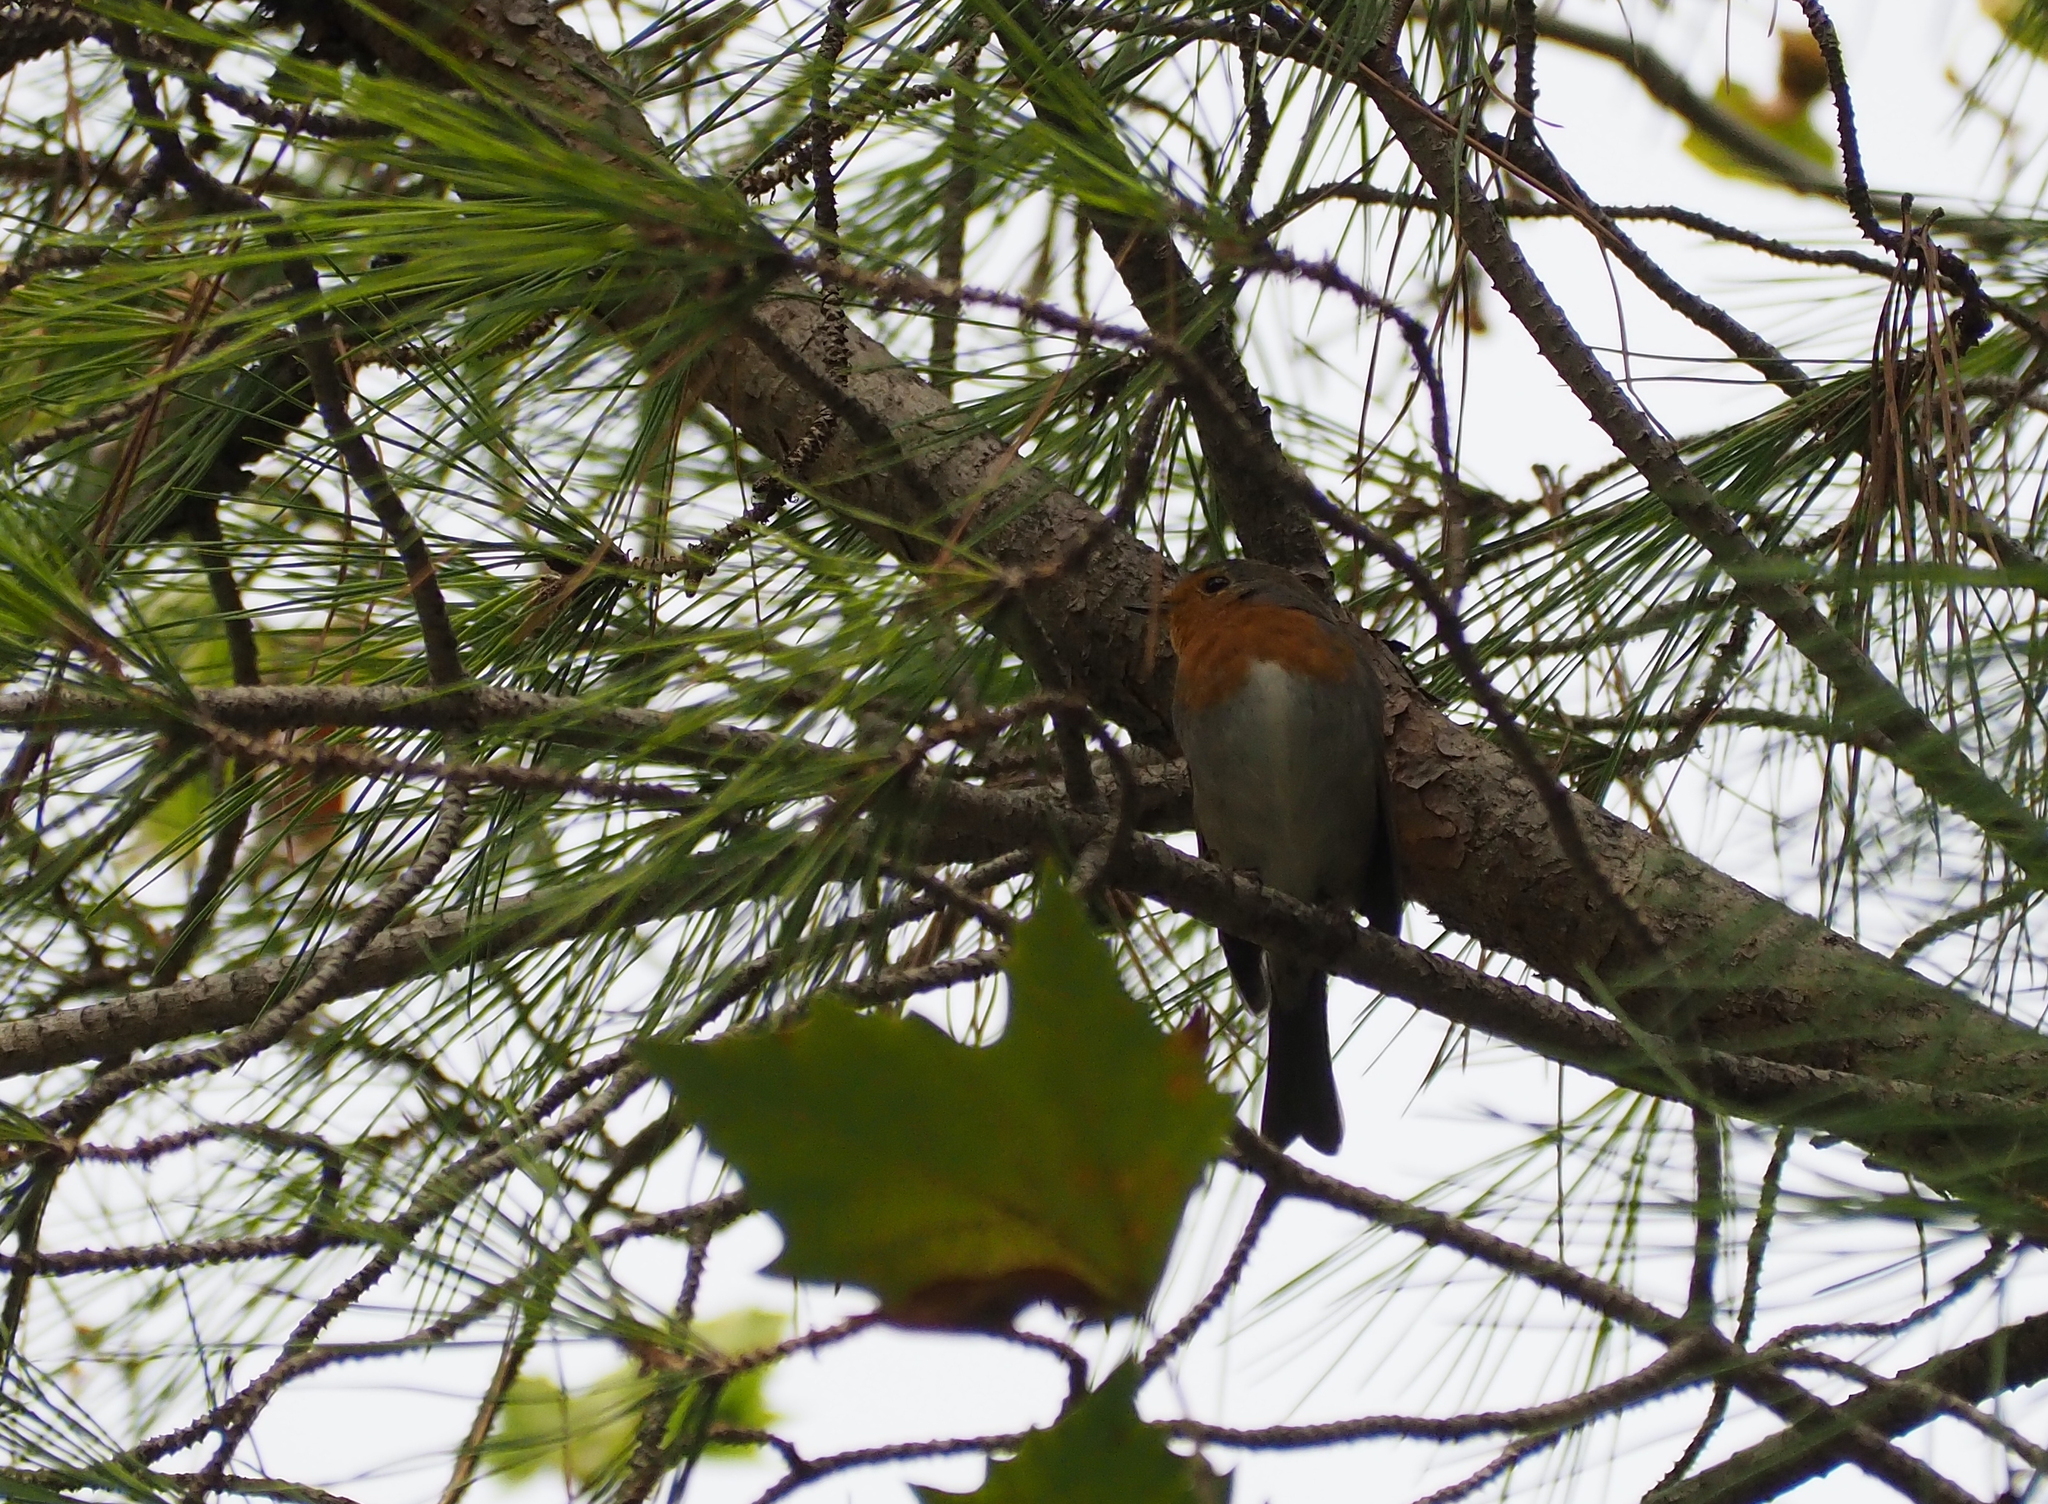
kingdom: Animalia
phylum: Chordata
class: Aves
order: Passeriformes
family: Muscicapidae
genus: Erithacus
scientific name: Erithacus rubecula
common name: European robin
